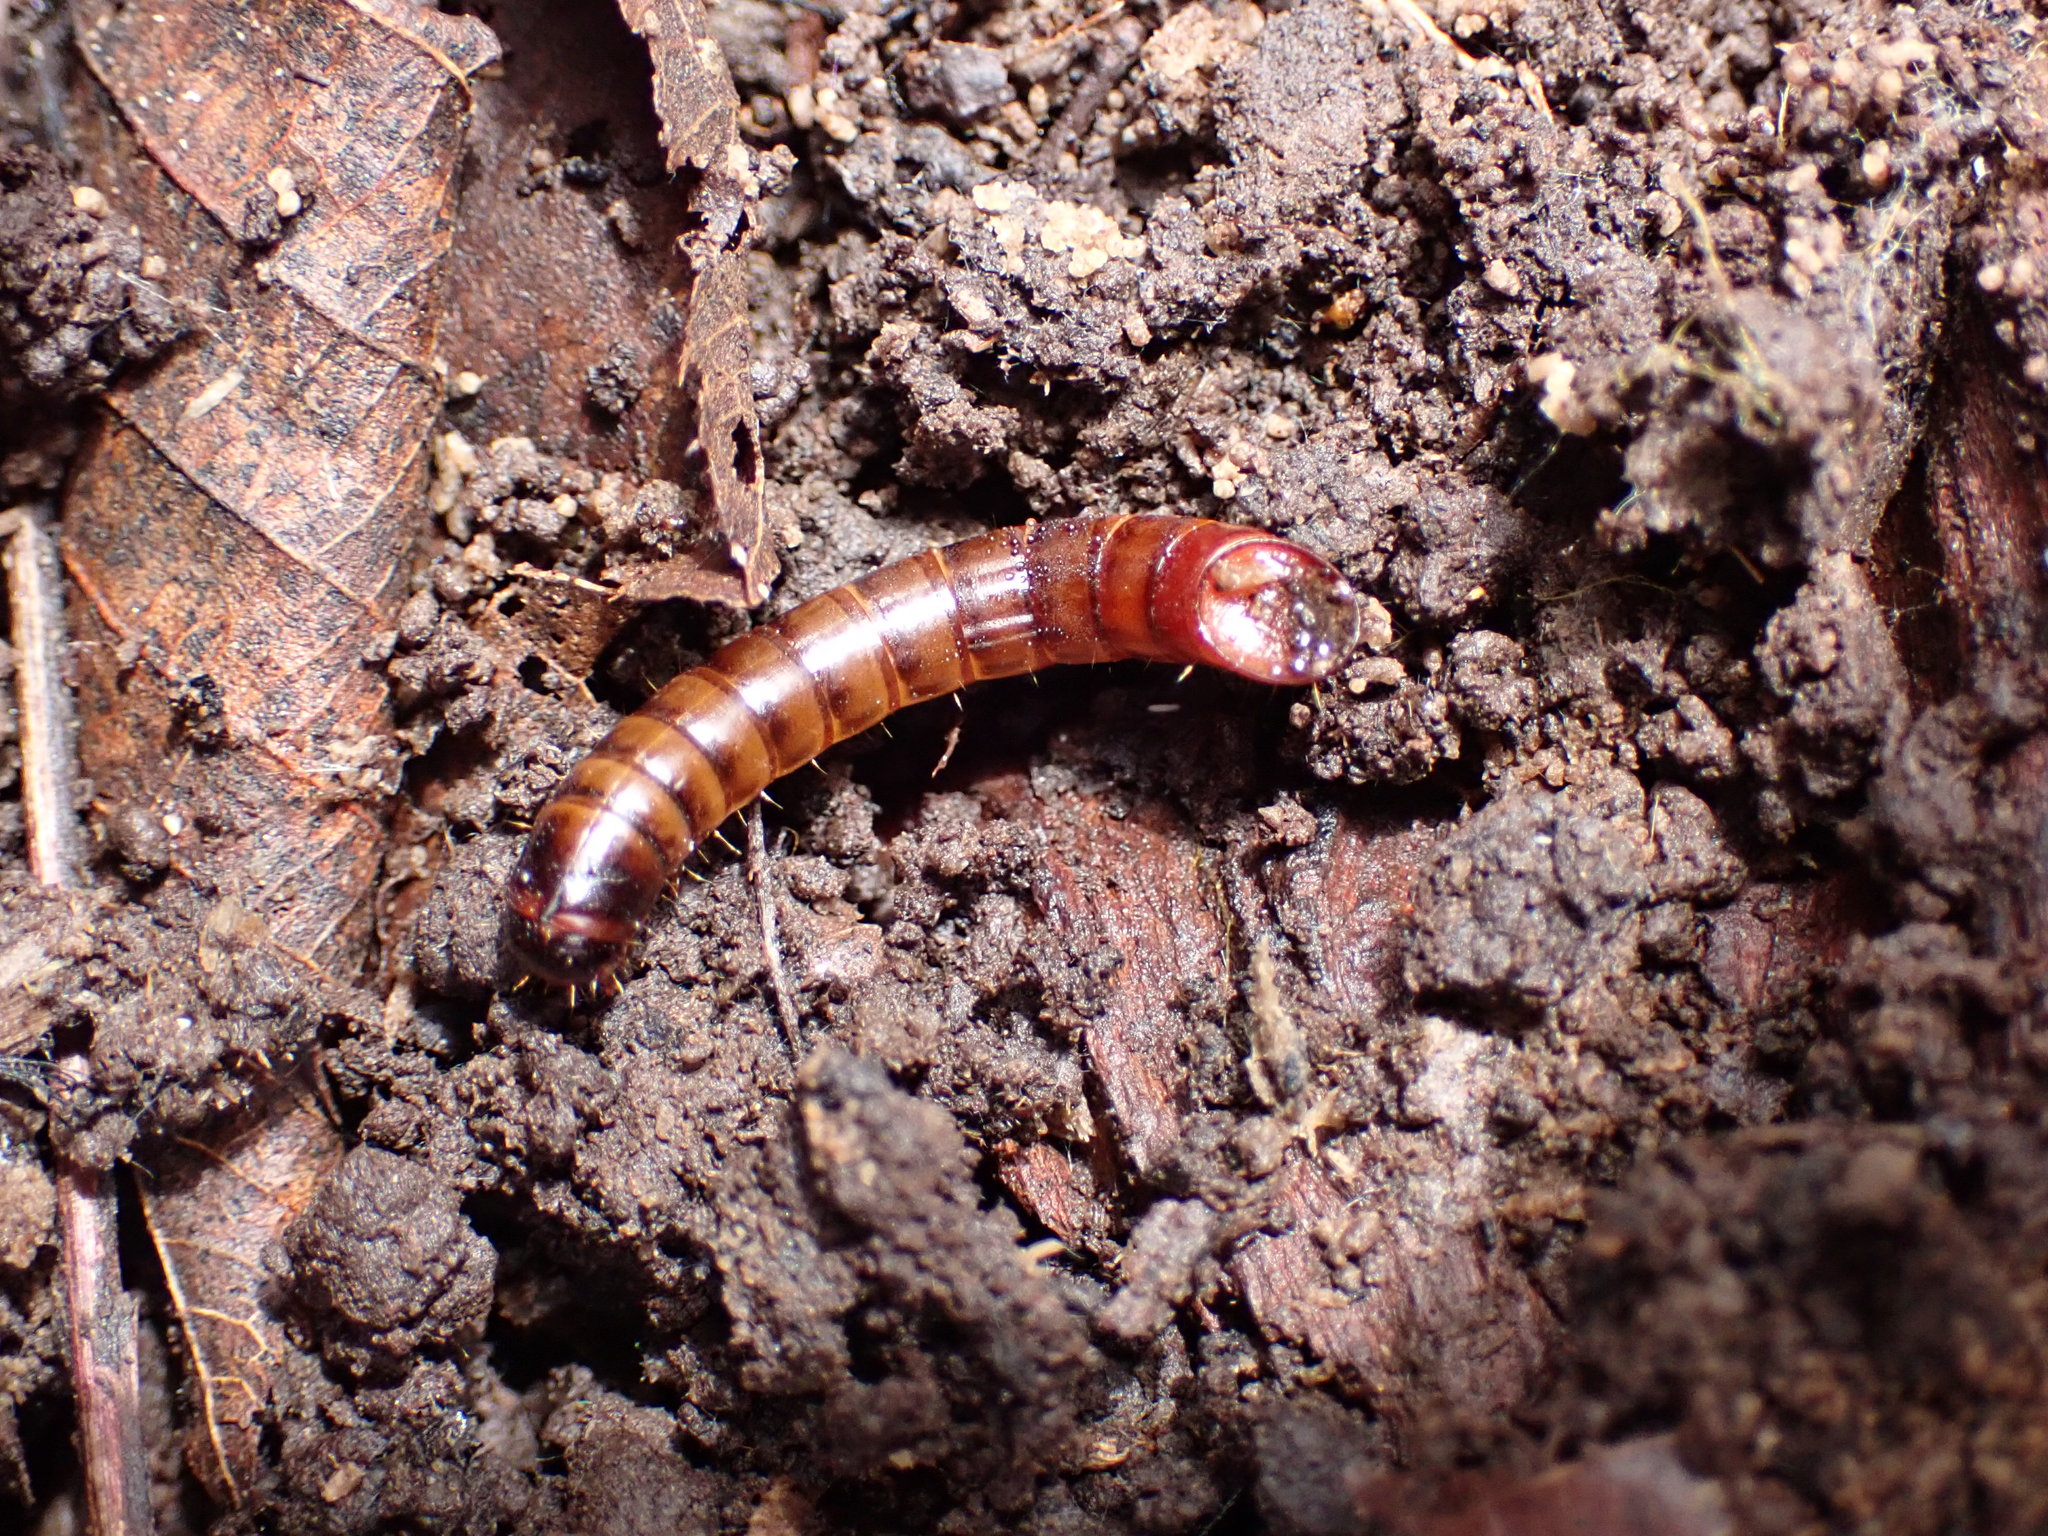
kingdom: Animalia
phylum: Arthropoda
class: Insecta
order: Coleoptera
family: Tenebrionidae
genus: Meracantha
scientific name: Meracantha contracta
